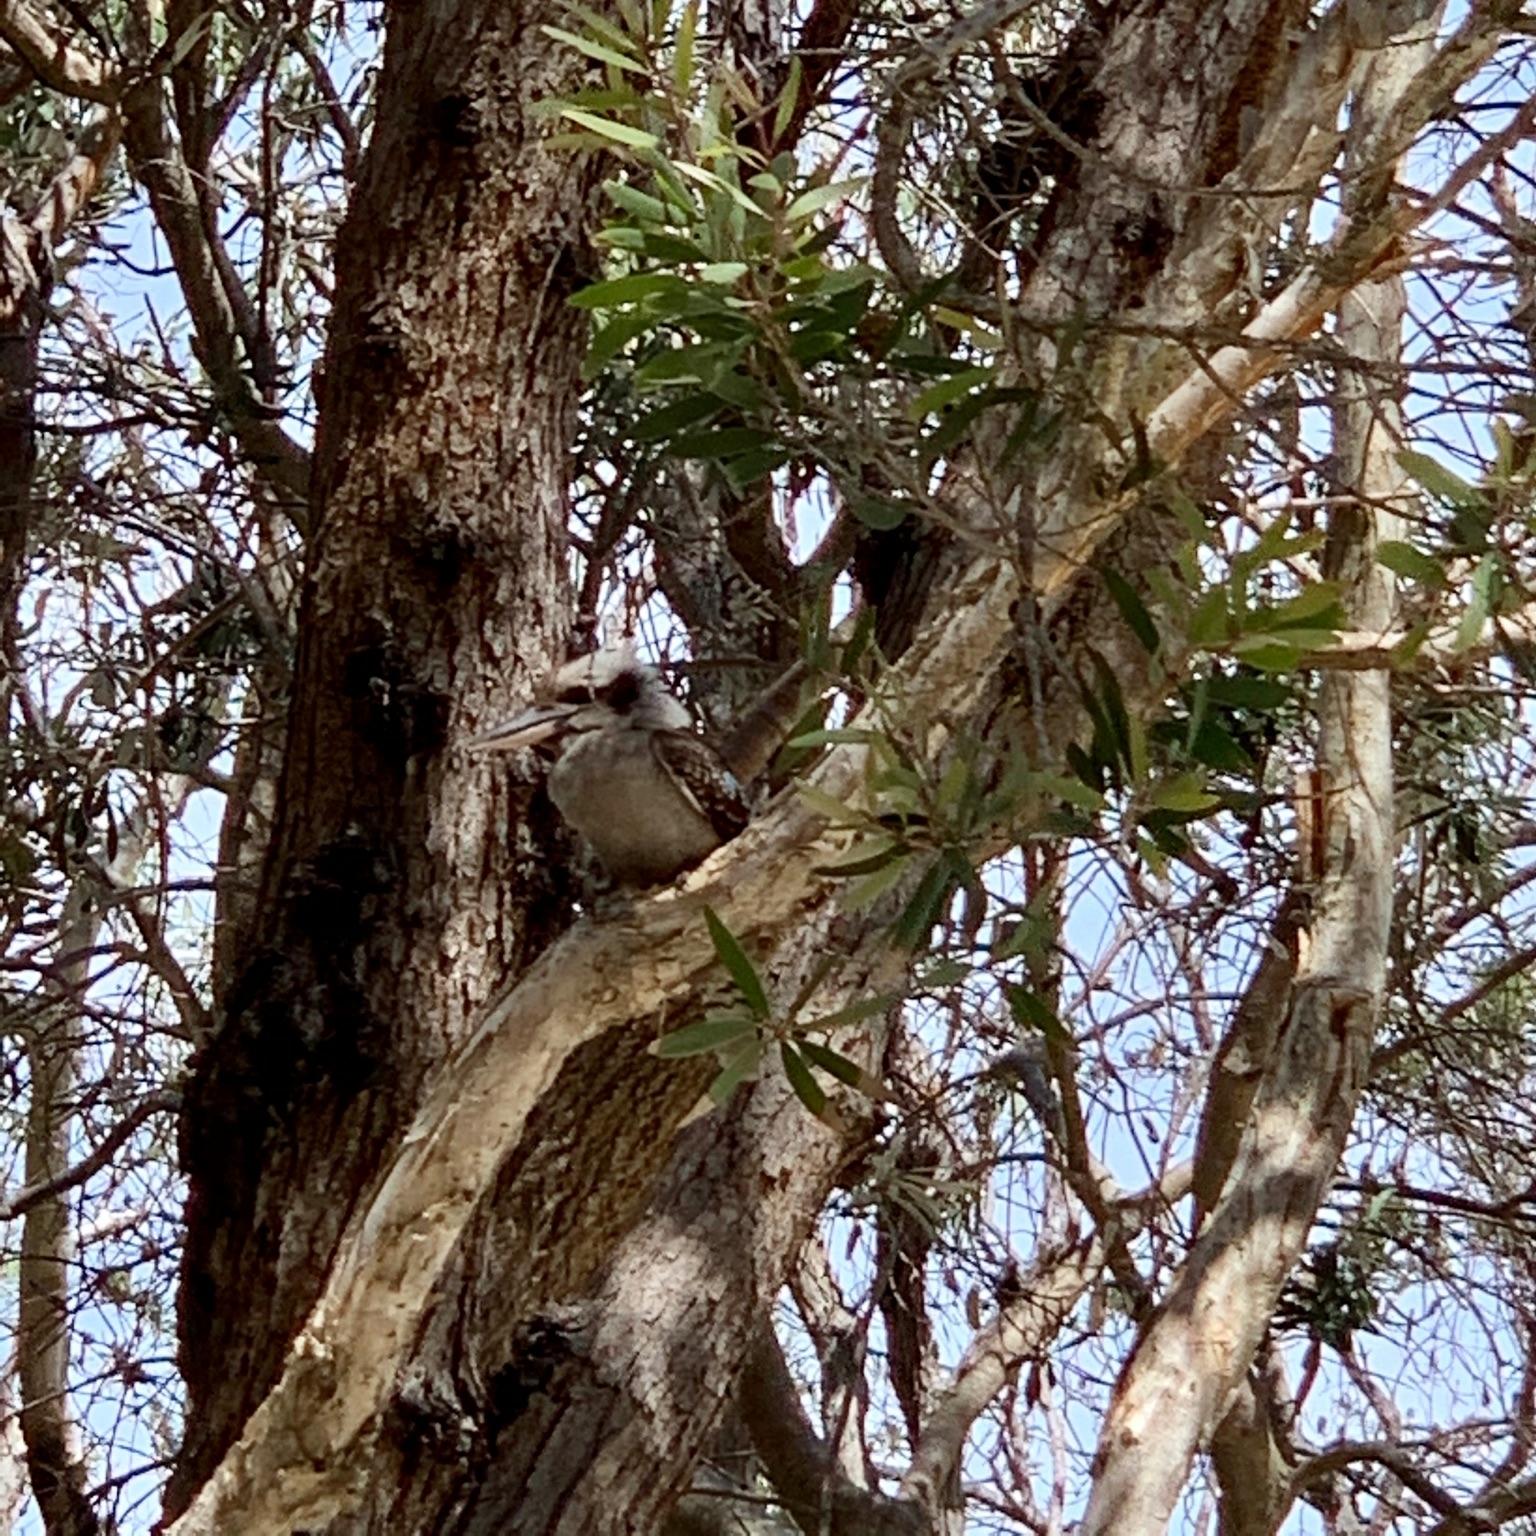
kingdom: Animalia
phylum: Chordata
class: Aves
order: Coraciiformes
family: Alcedinidae
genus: Dacelo
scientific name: Dacelo novaeguineae
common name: Laughing kookaburra
